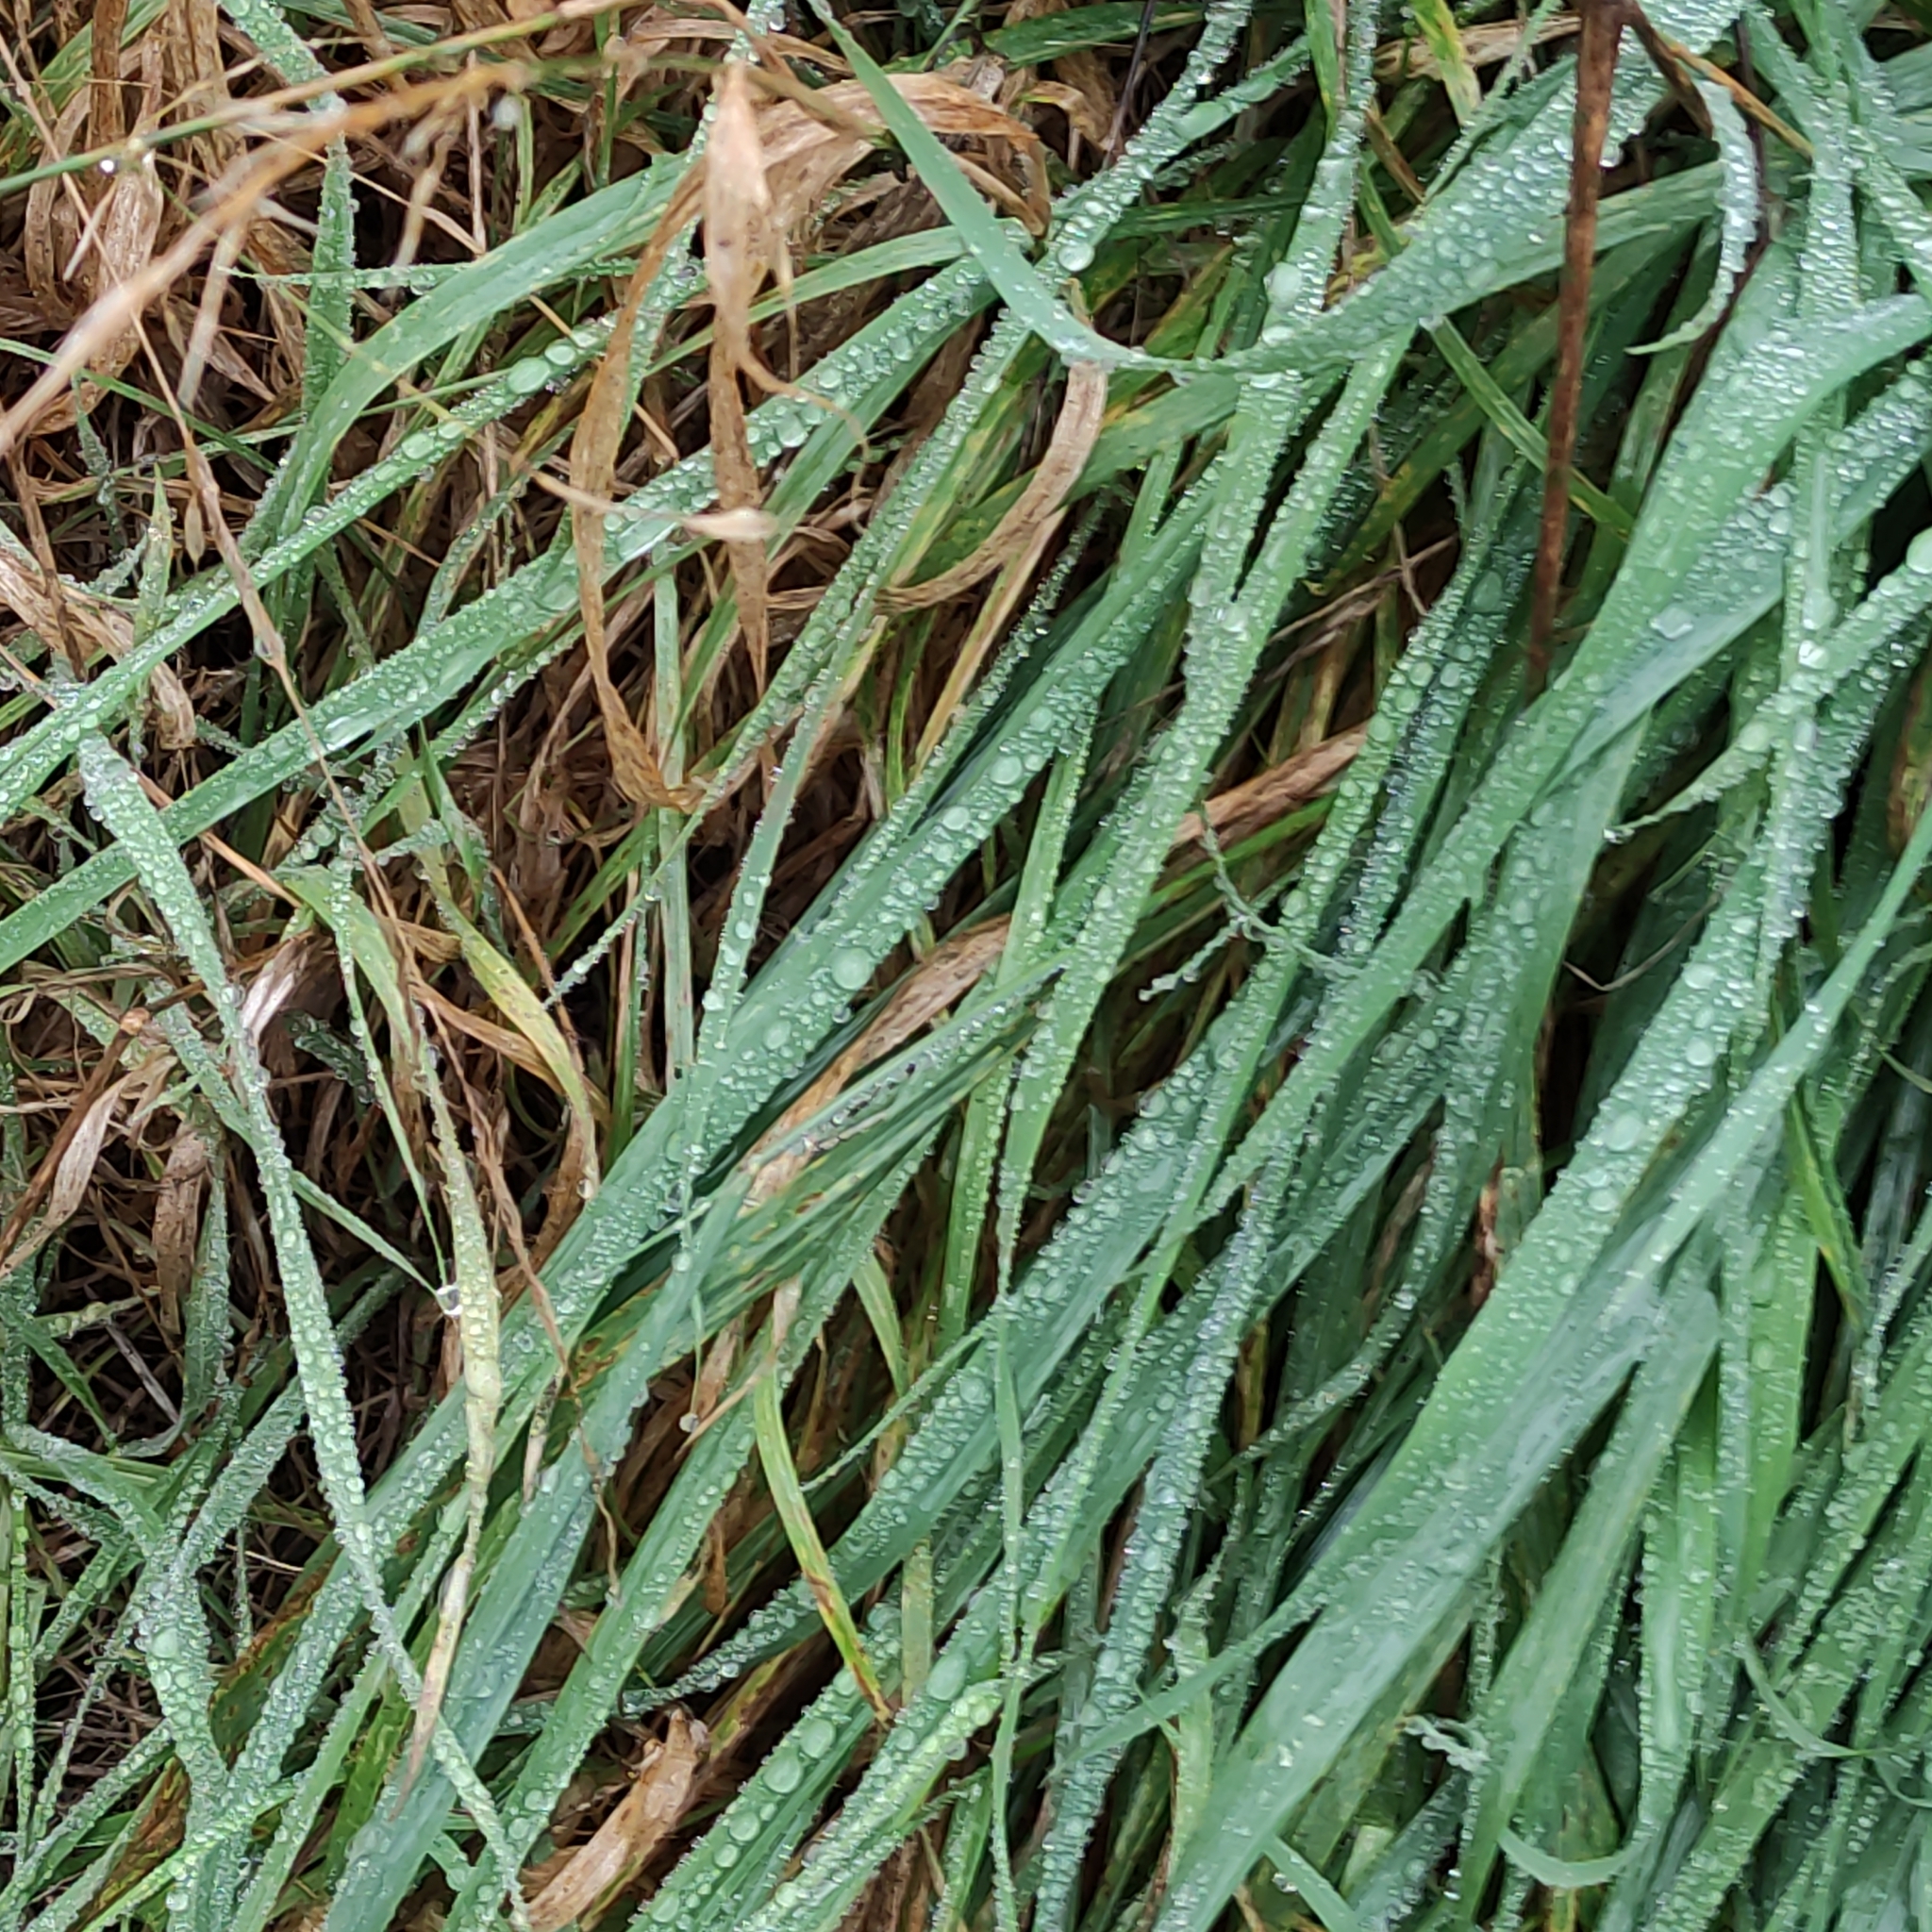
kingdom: Plantae
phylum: Tracheophyta
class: Liliopsida
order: Poales
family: Poaceae
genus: Arrhenatherum
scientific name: Arrhenatherum elatius
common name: Tall oatgrass
